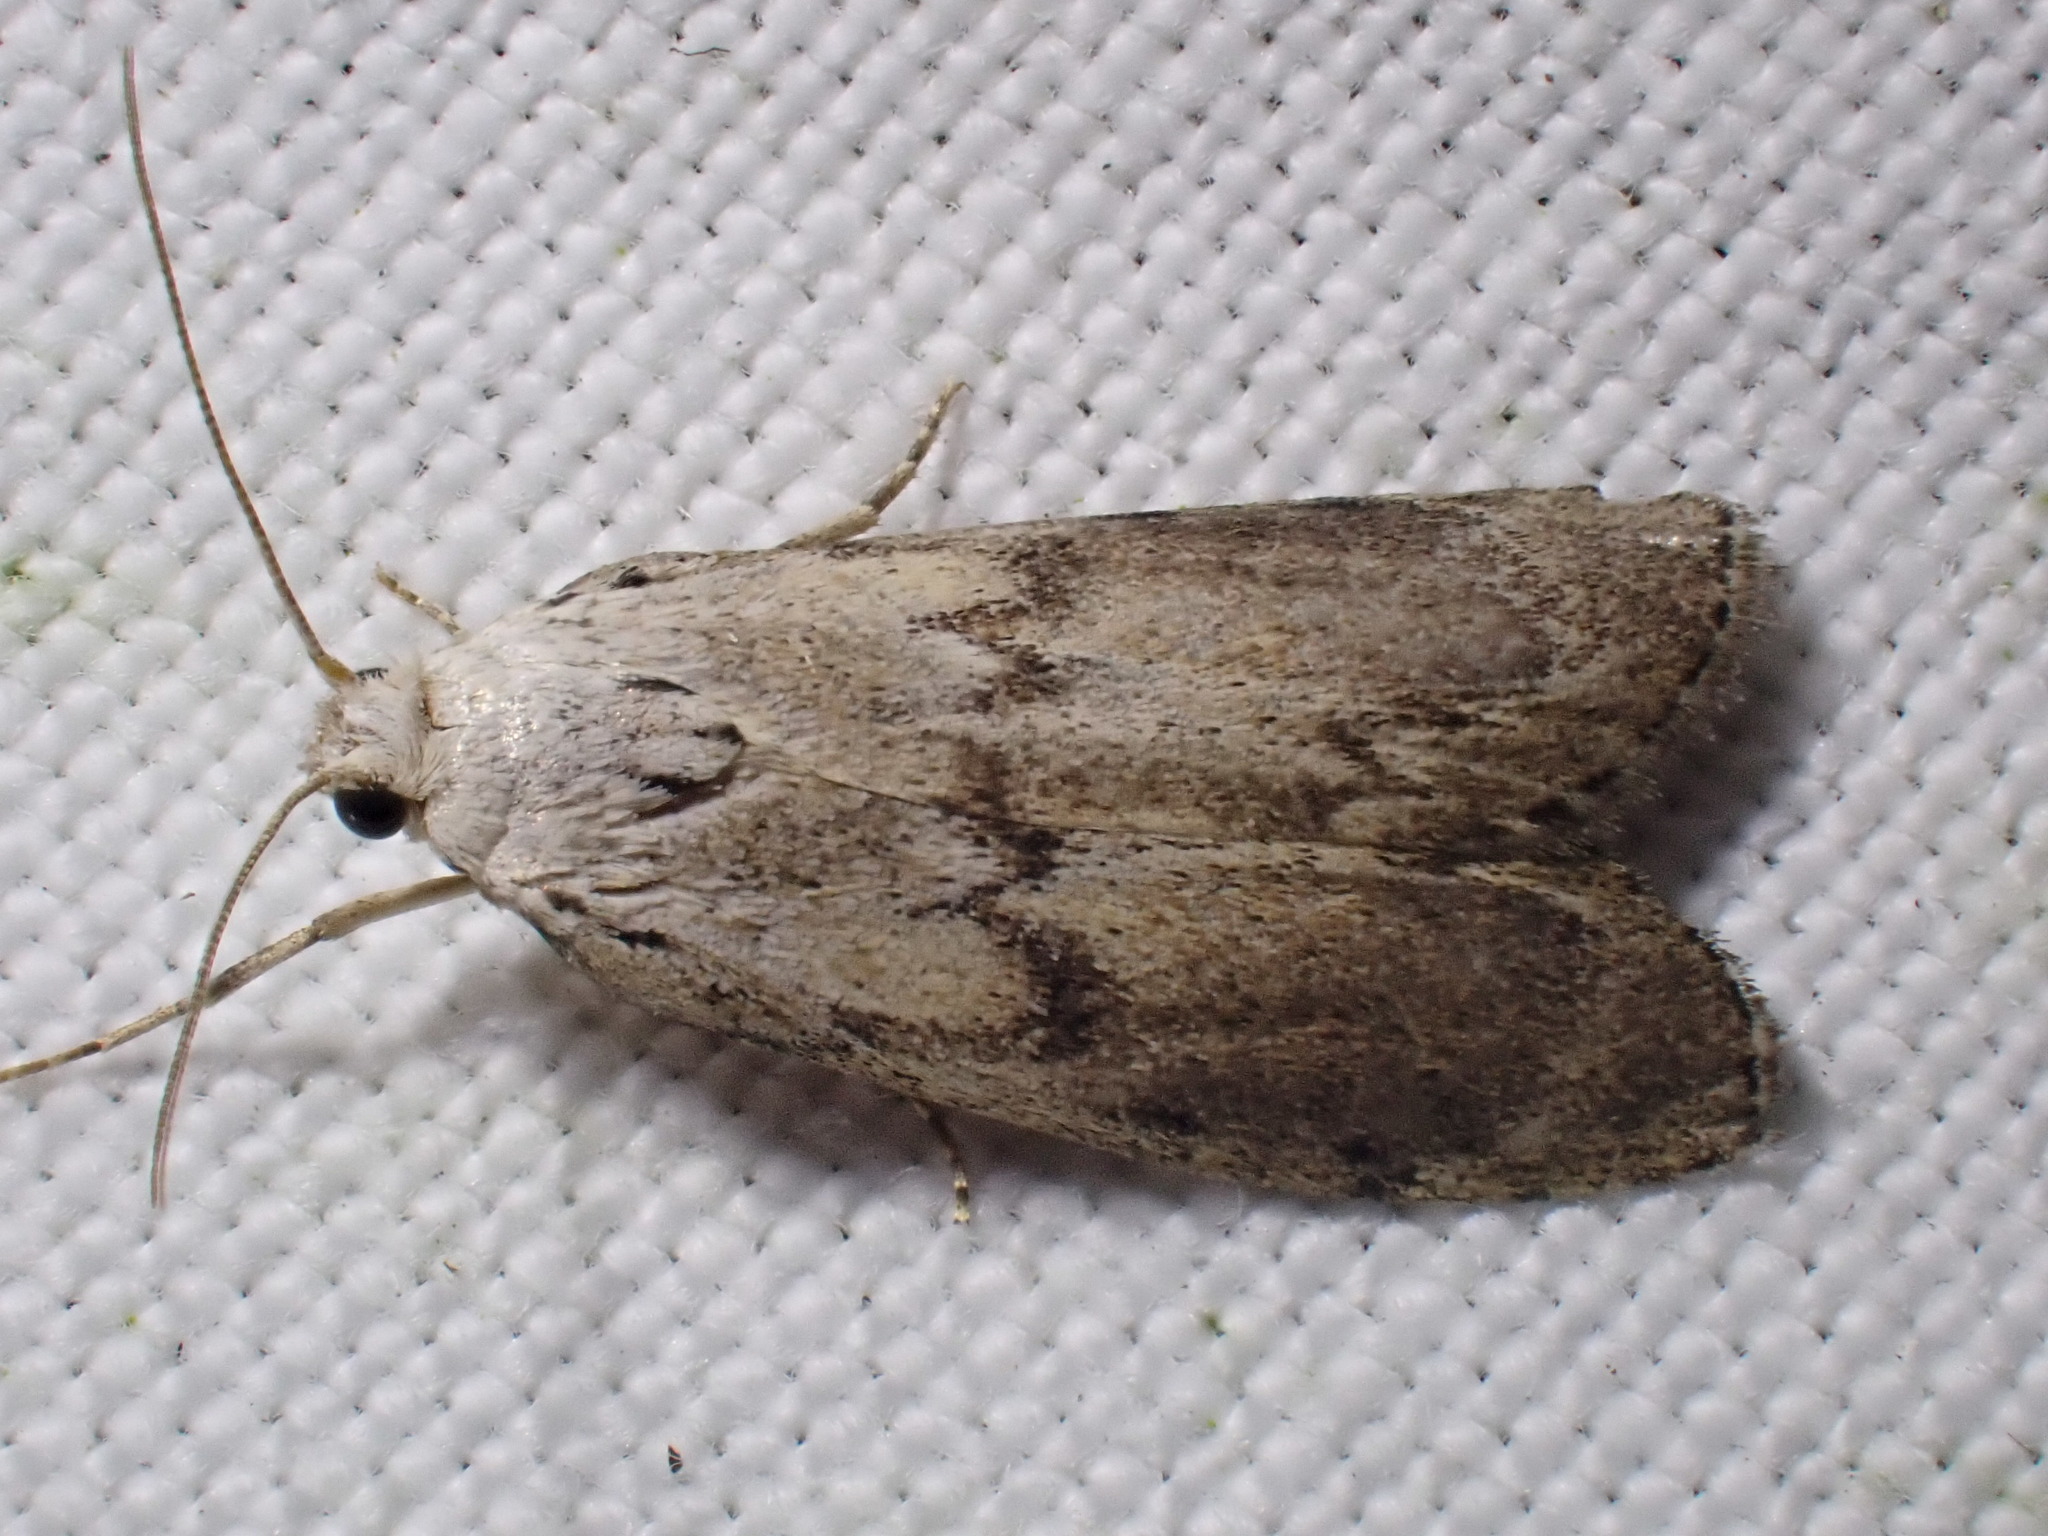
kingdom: Animalia
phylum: Arthropoda
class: Insecta
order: Lepidoptera
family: Pyralidae
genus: Aphomia
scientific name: Aphomia sociella
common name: Bee moth
